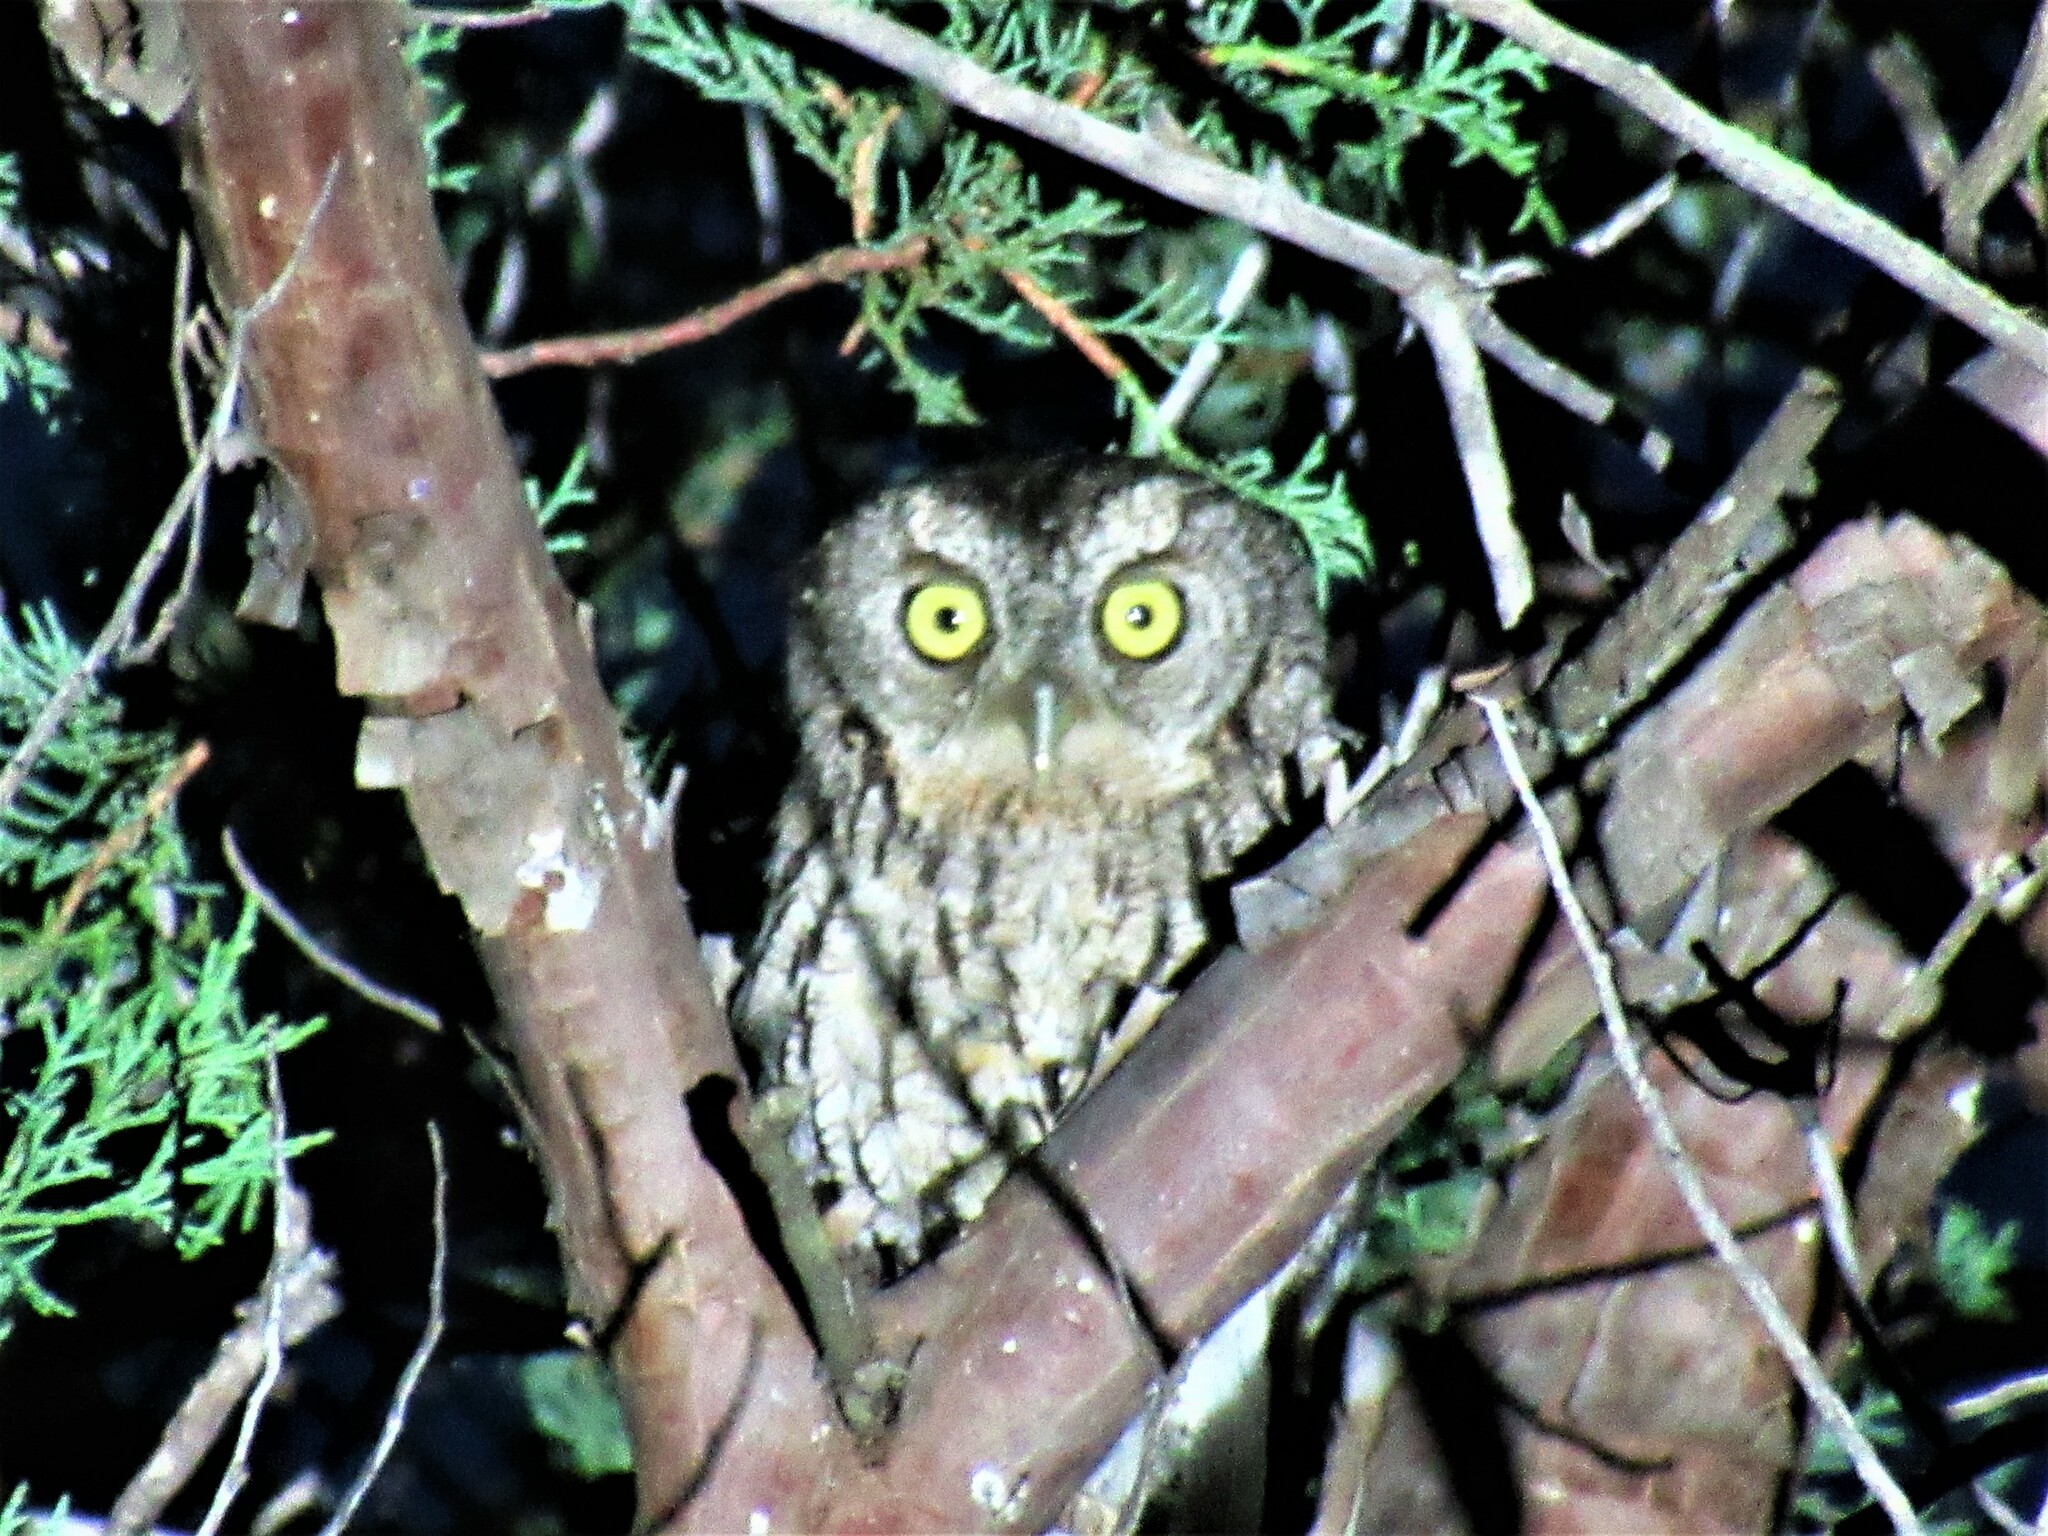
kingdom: Animalia
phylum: Chordata
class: Aves
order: Strigiformes
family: Strigidae
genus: Megascops
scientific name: Megascops kennicottii
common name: Western screech-owl
